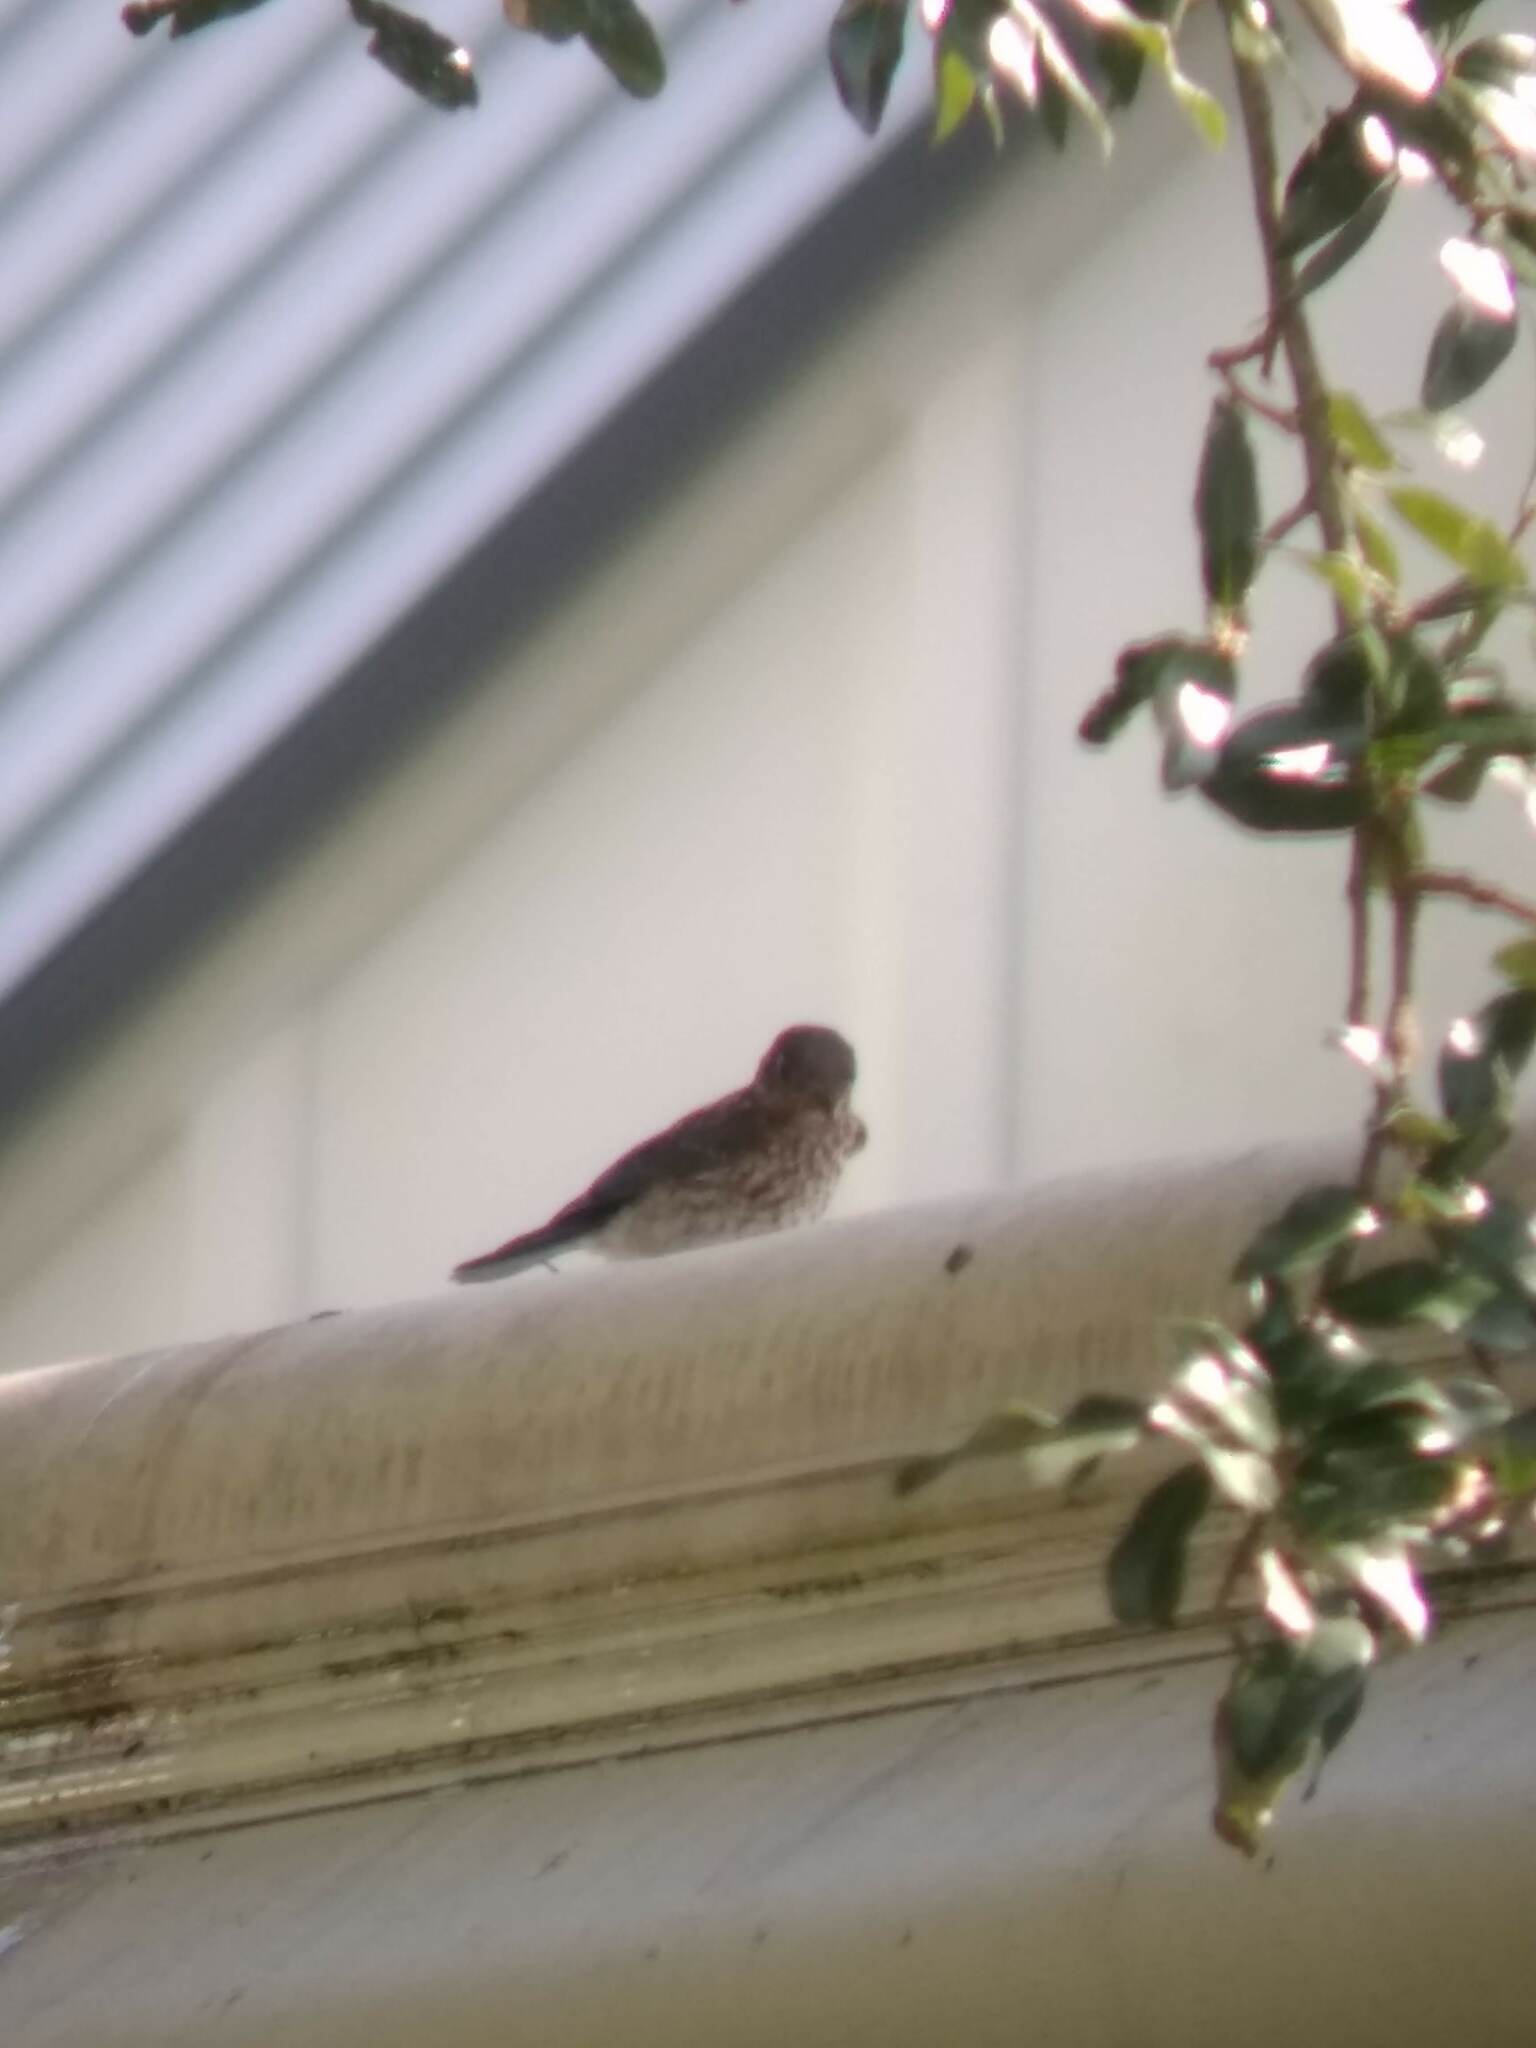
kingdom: Animalia
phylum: Chordata
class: Aves
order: Passeriformes
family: Turdidae
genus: Sialia
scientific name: Sialia sialis
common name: Eastern bluebird
